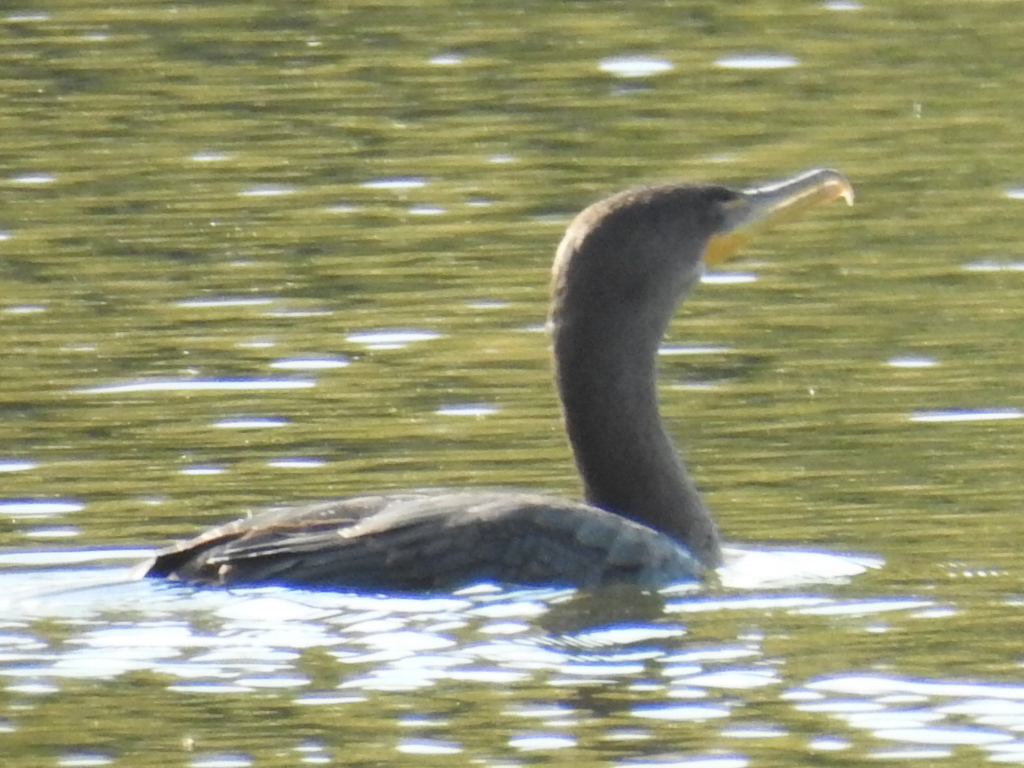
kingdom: Animalia
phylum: Chordata
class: Aves
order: Suliformes
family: Phalacrocoracidae
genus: Phalacrocorax
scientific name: Phalacrocorax auritus
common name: Double-crested cormorant
